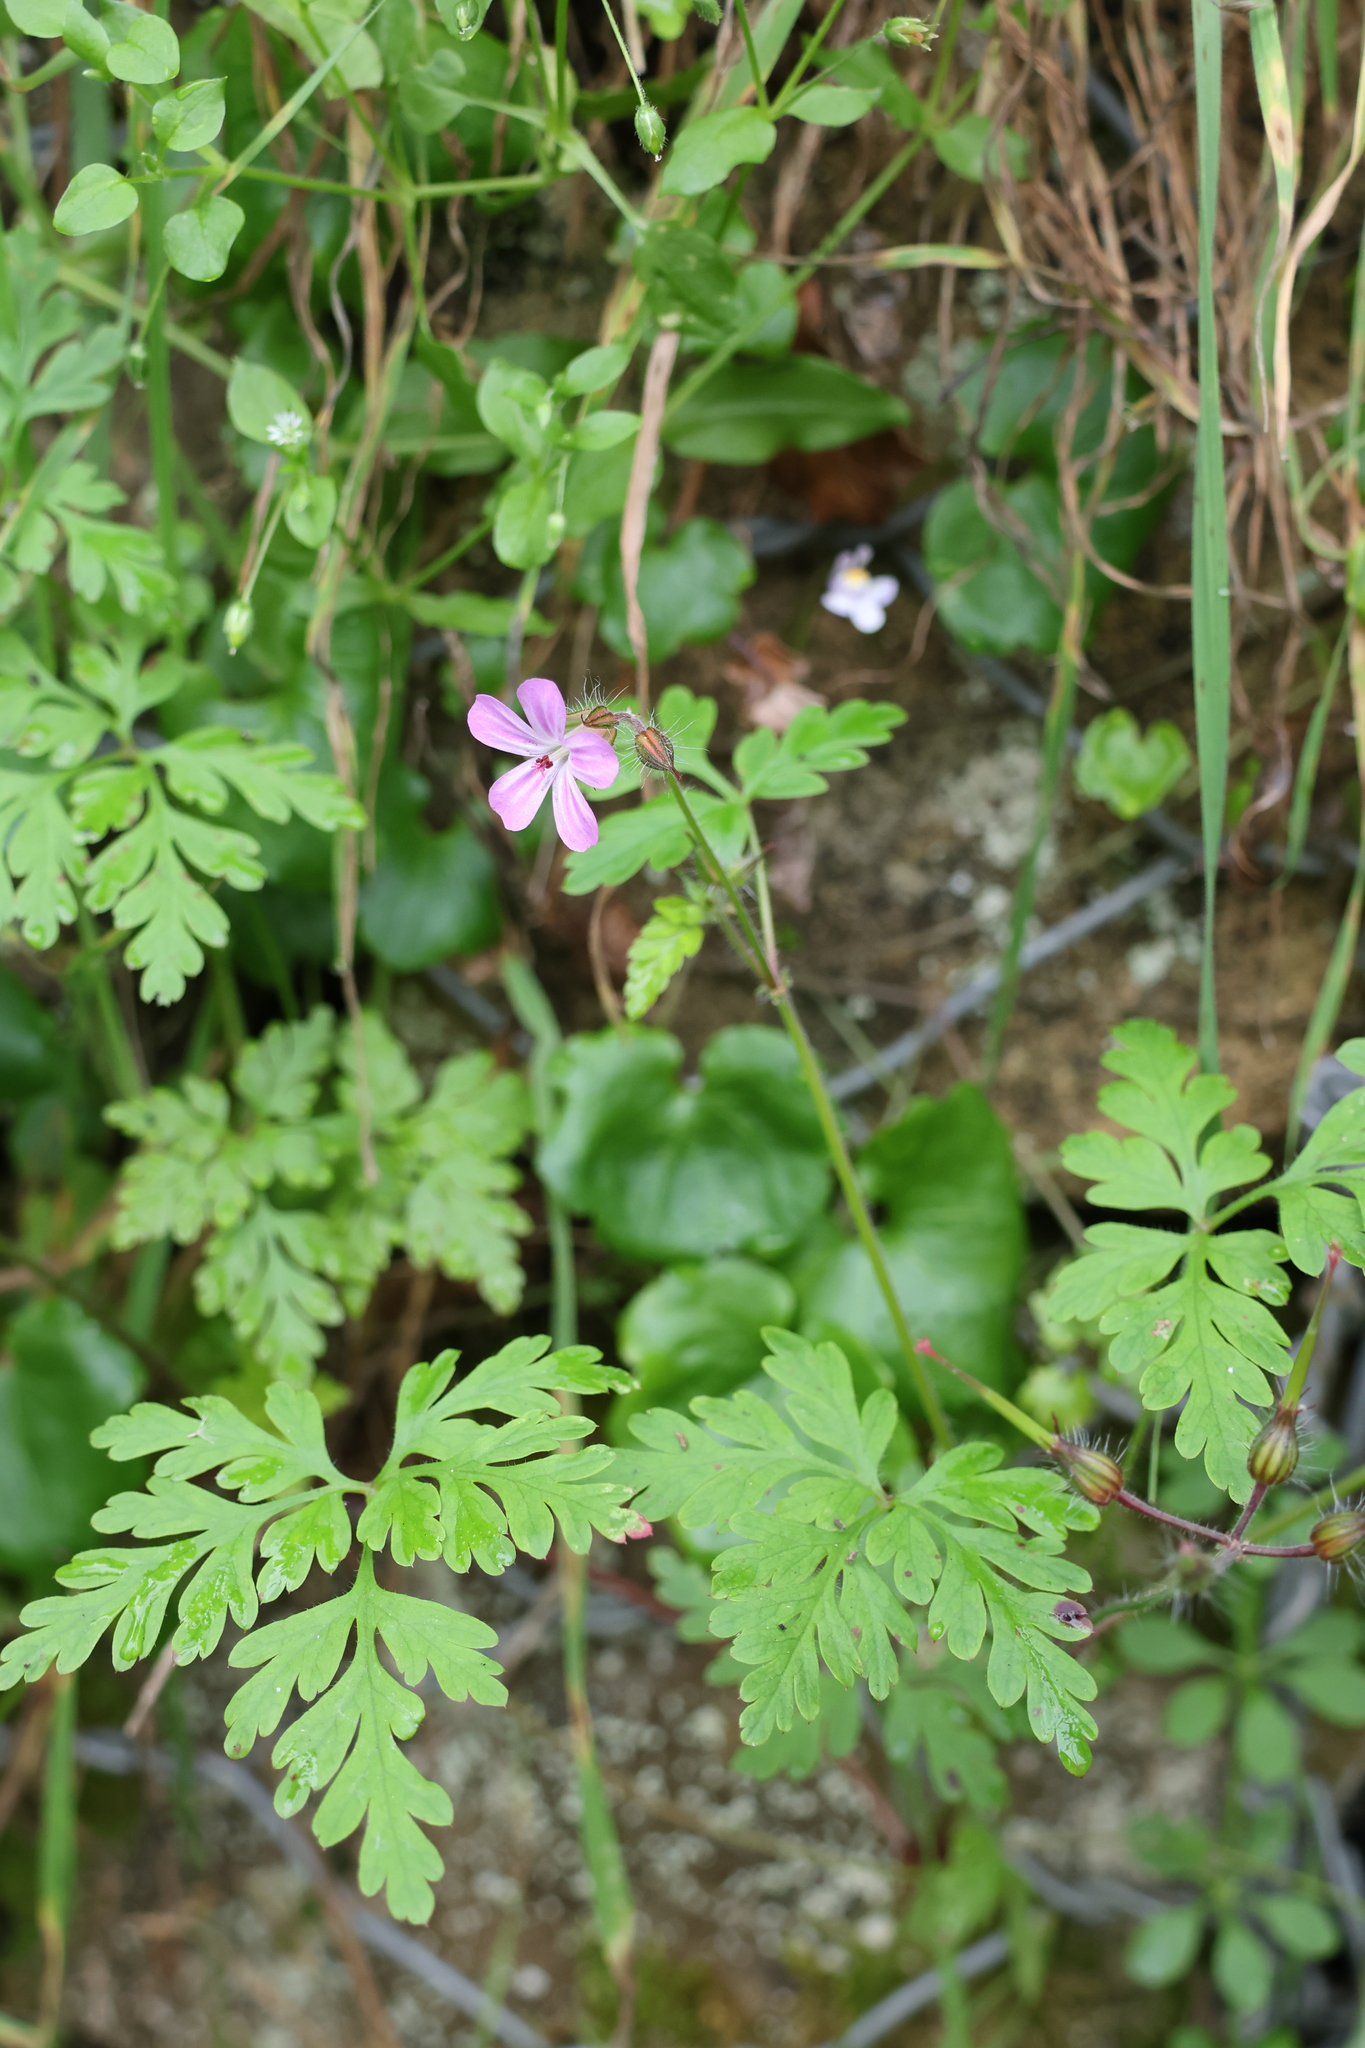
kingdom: Plantae
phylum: Tracheophyta
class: Magnoliopsida
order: Geraniales
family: Geraniaceae
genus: Geranium
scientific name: Geranium robertianum
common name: Herb-robert
